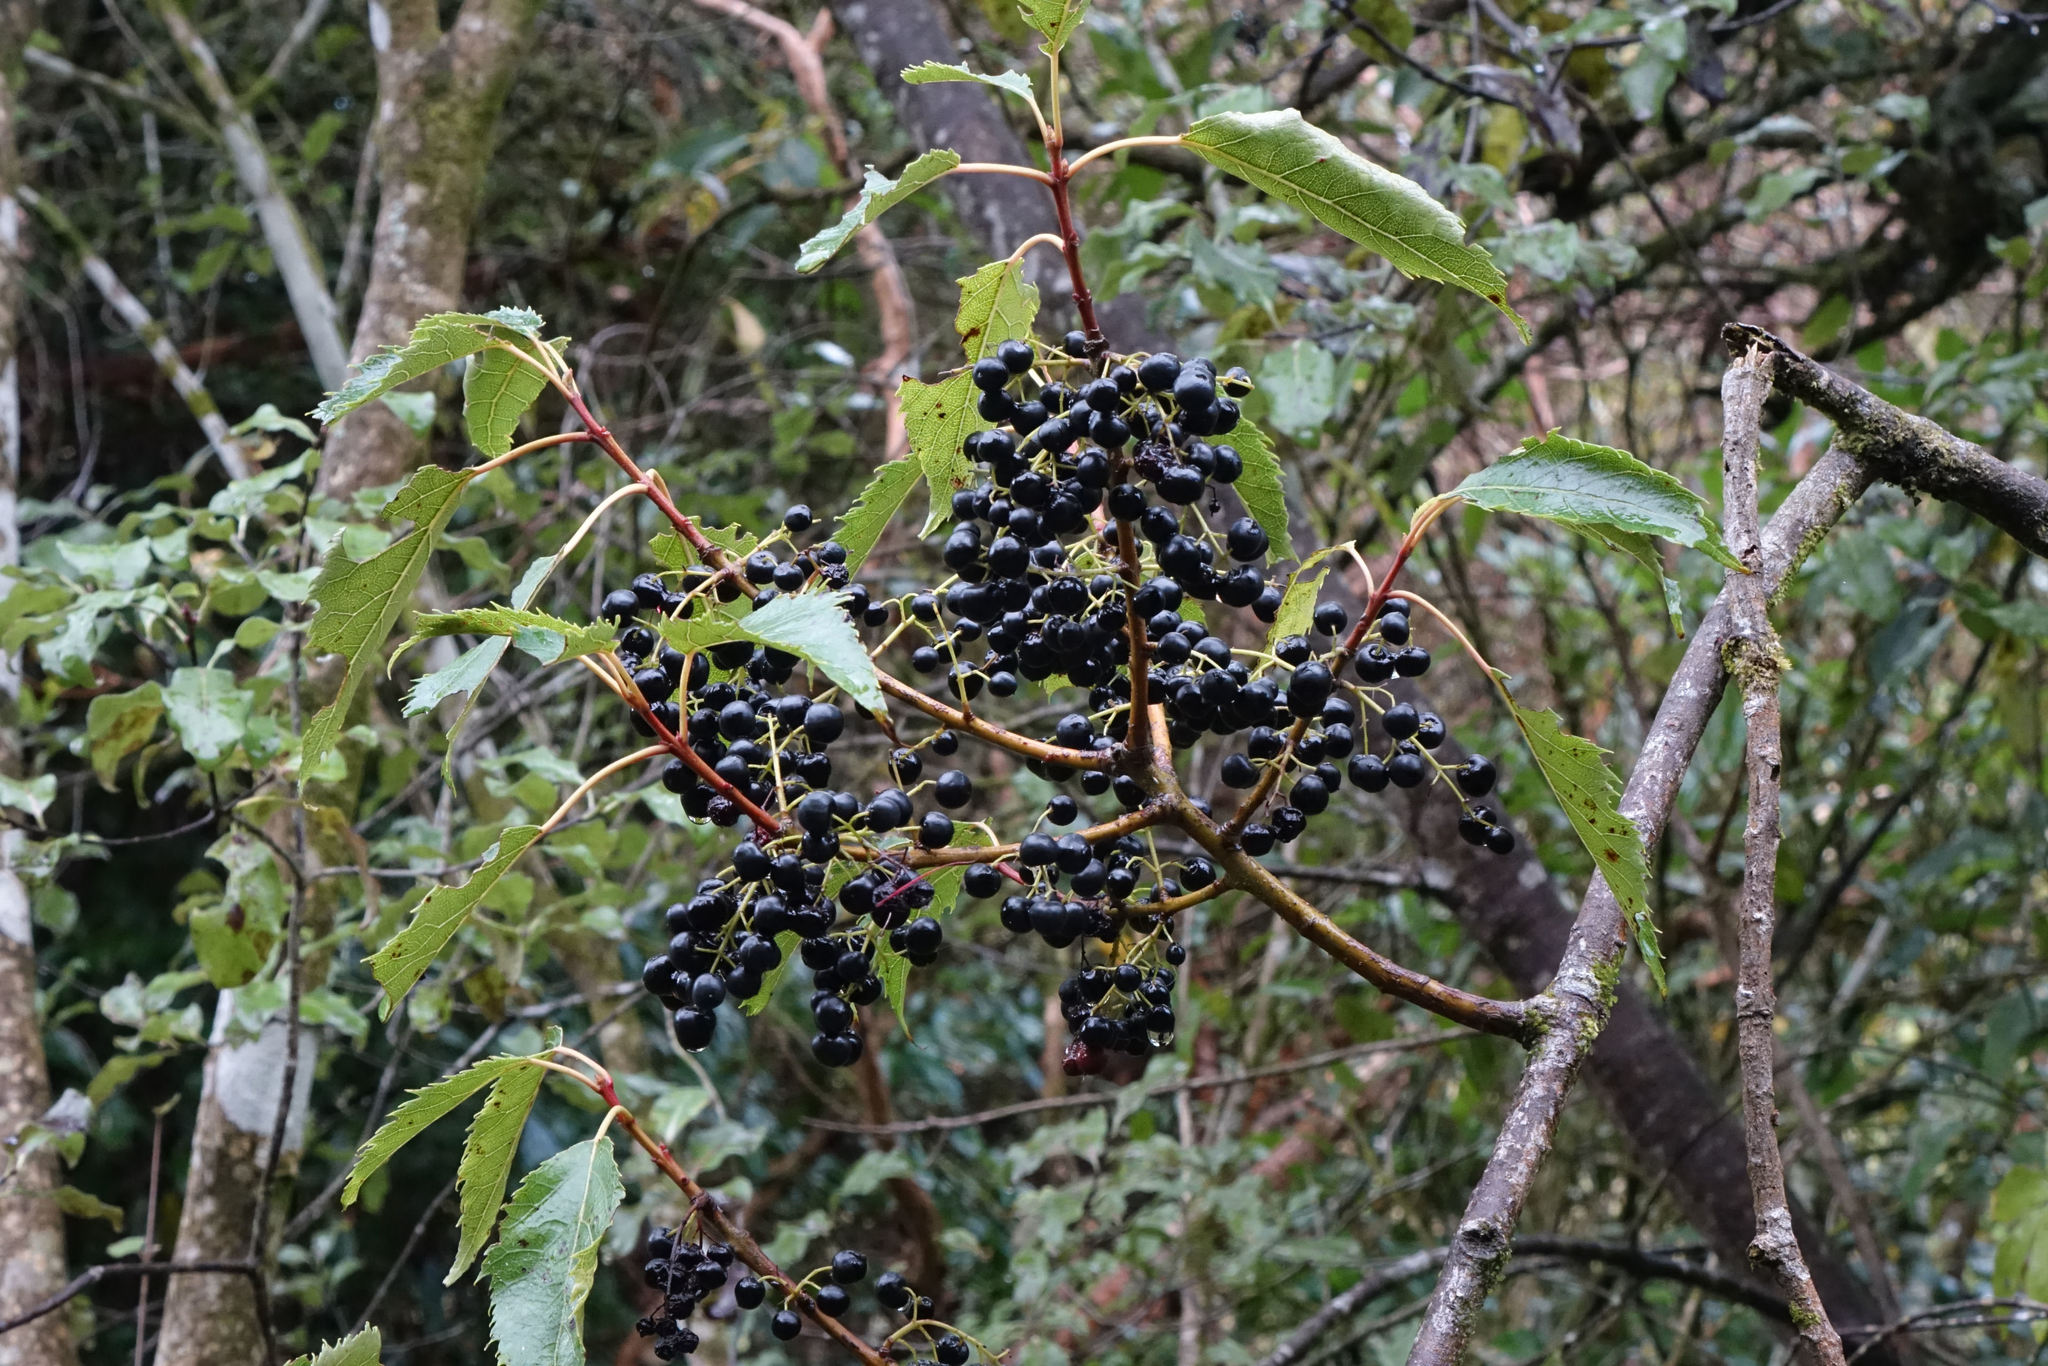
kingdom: Plantae
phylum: Tracheophyta
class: Magnoliopsida
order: Oxalidales
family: Elaeocarpaceae
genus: Aristotelia
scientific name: Aristotelia serrata
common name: New zealand wineberry
